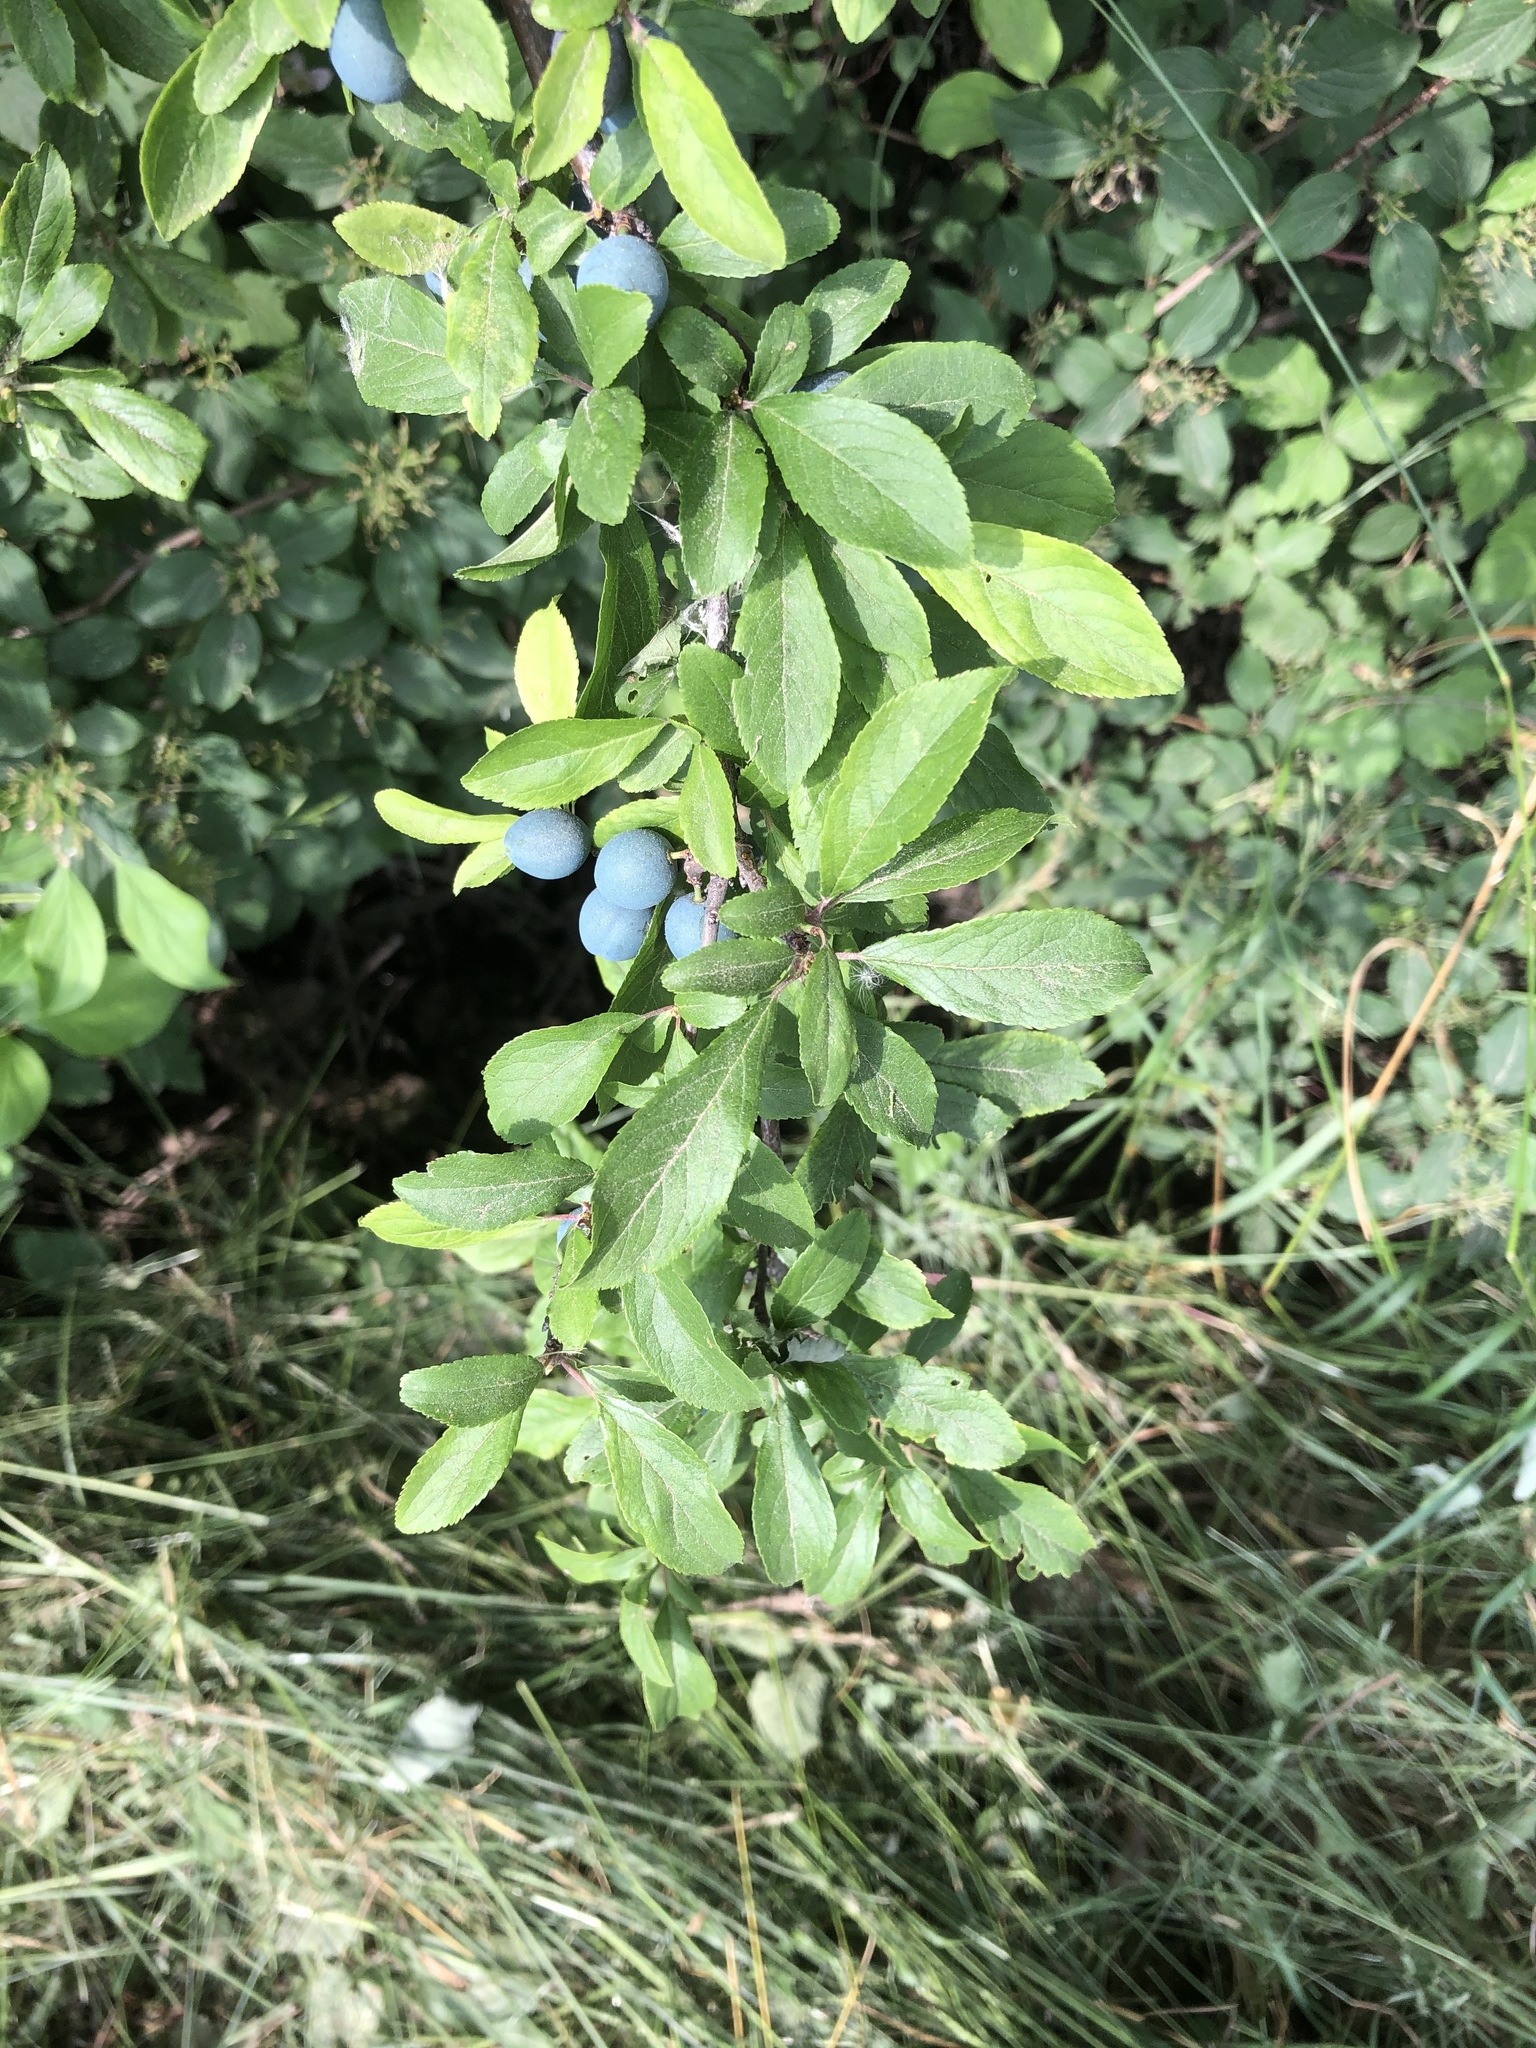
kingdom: Plantae
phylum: Tracheophyta
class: Magnoliopsida
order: Rosales
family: Rosaceae
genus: Prunus
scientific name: Prunus spinosa
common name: Blackthorn
